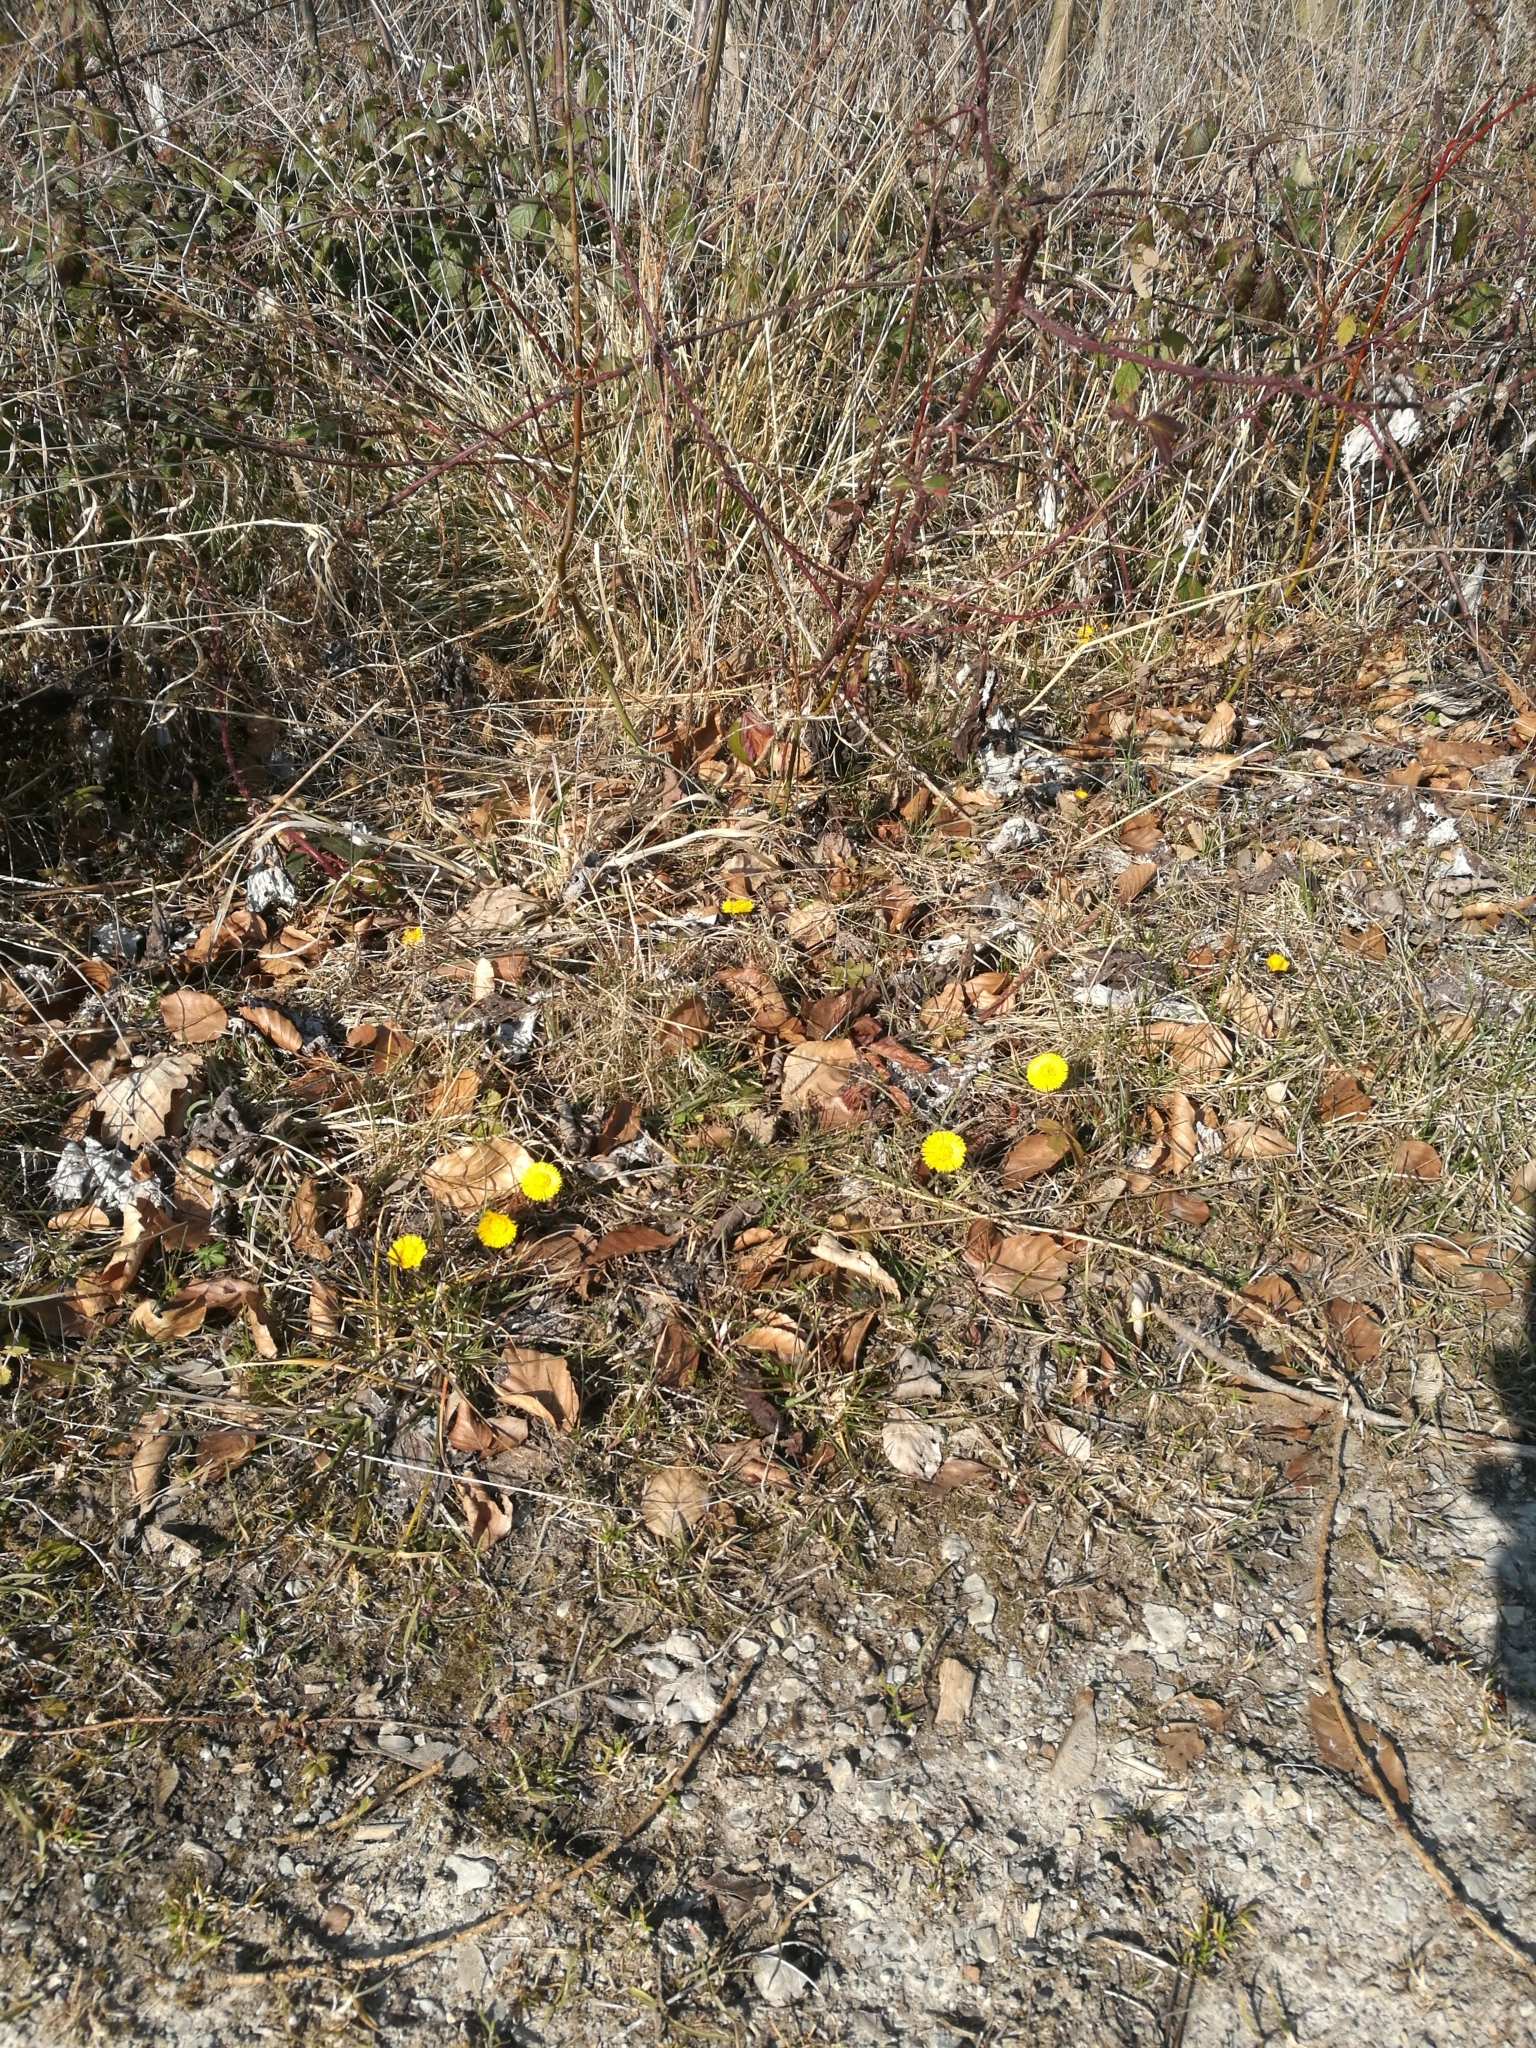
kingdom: Plantae
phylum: Tracheophyta
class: Magnoliopsida
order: Asterales
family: Asteraceae
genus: Tussilago
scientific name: Tussilago farfara
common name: Coltsfoot
